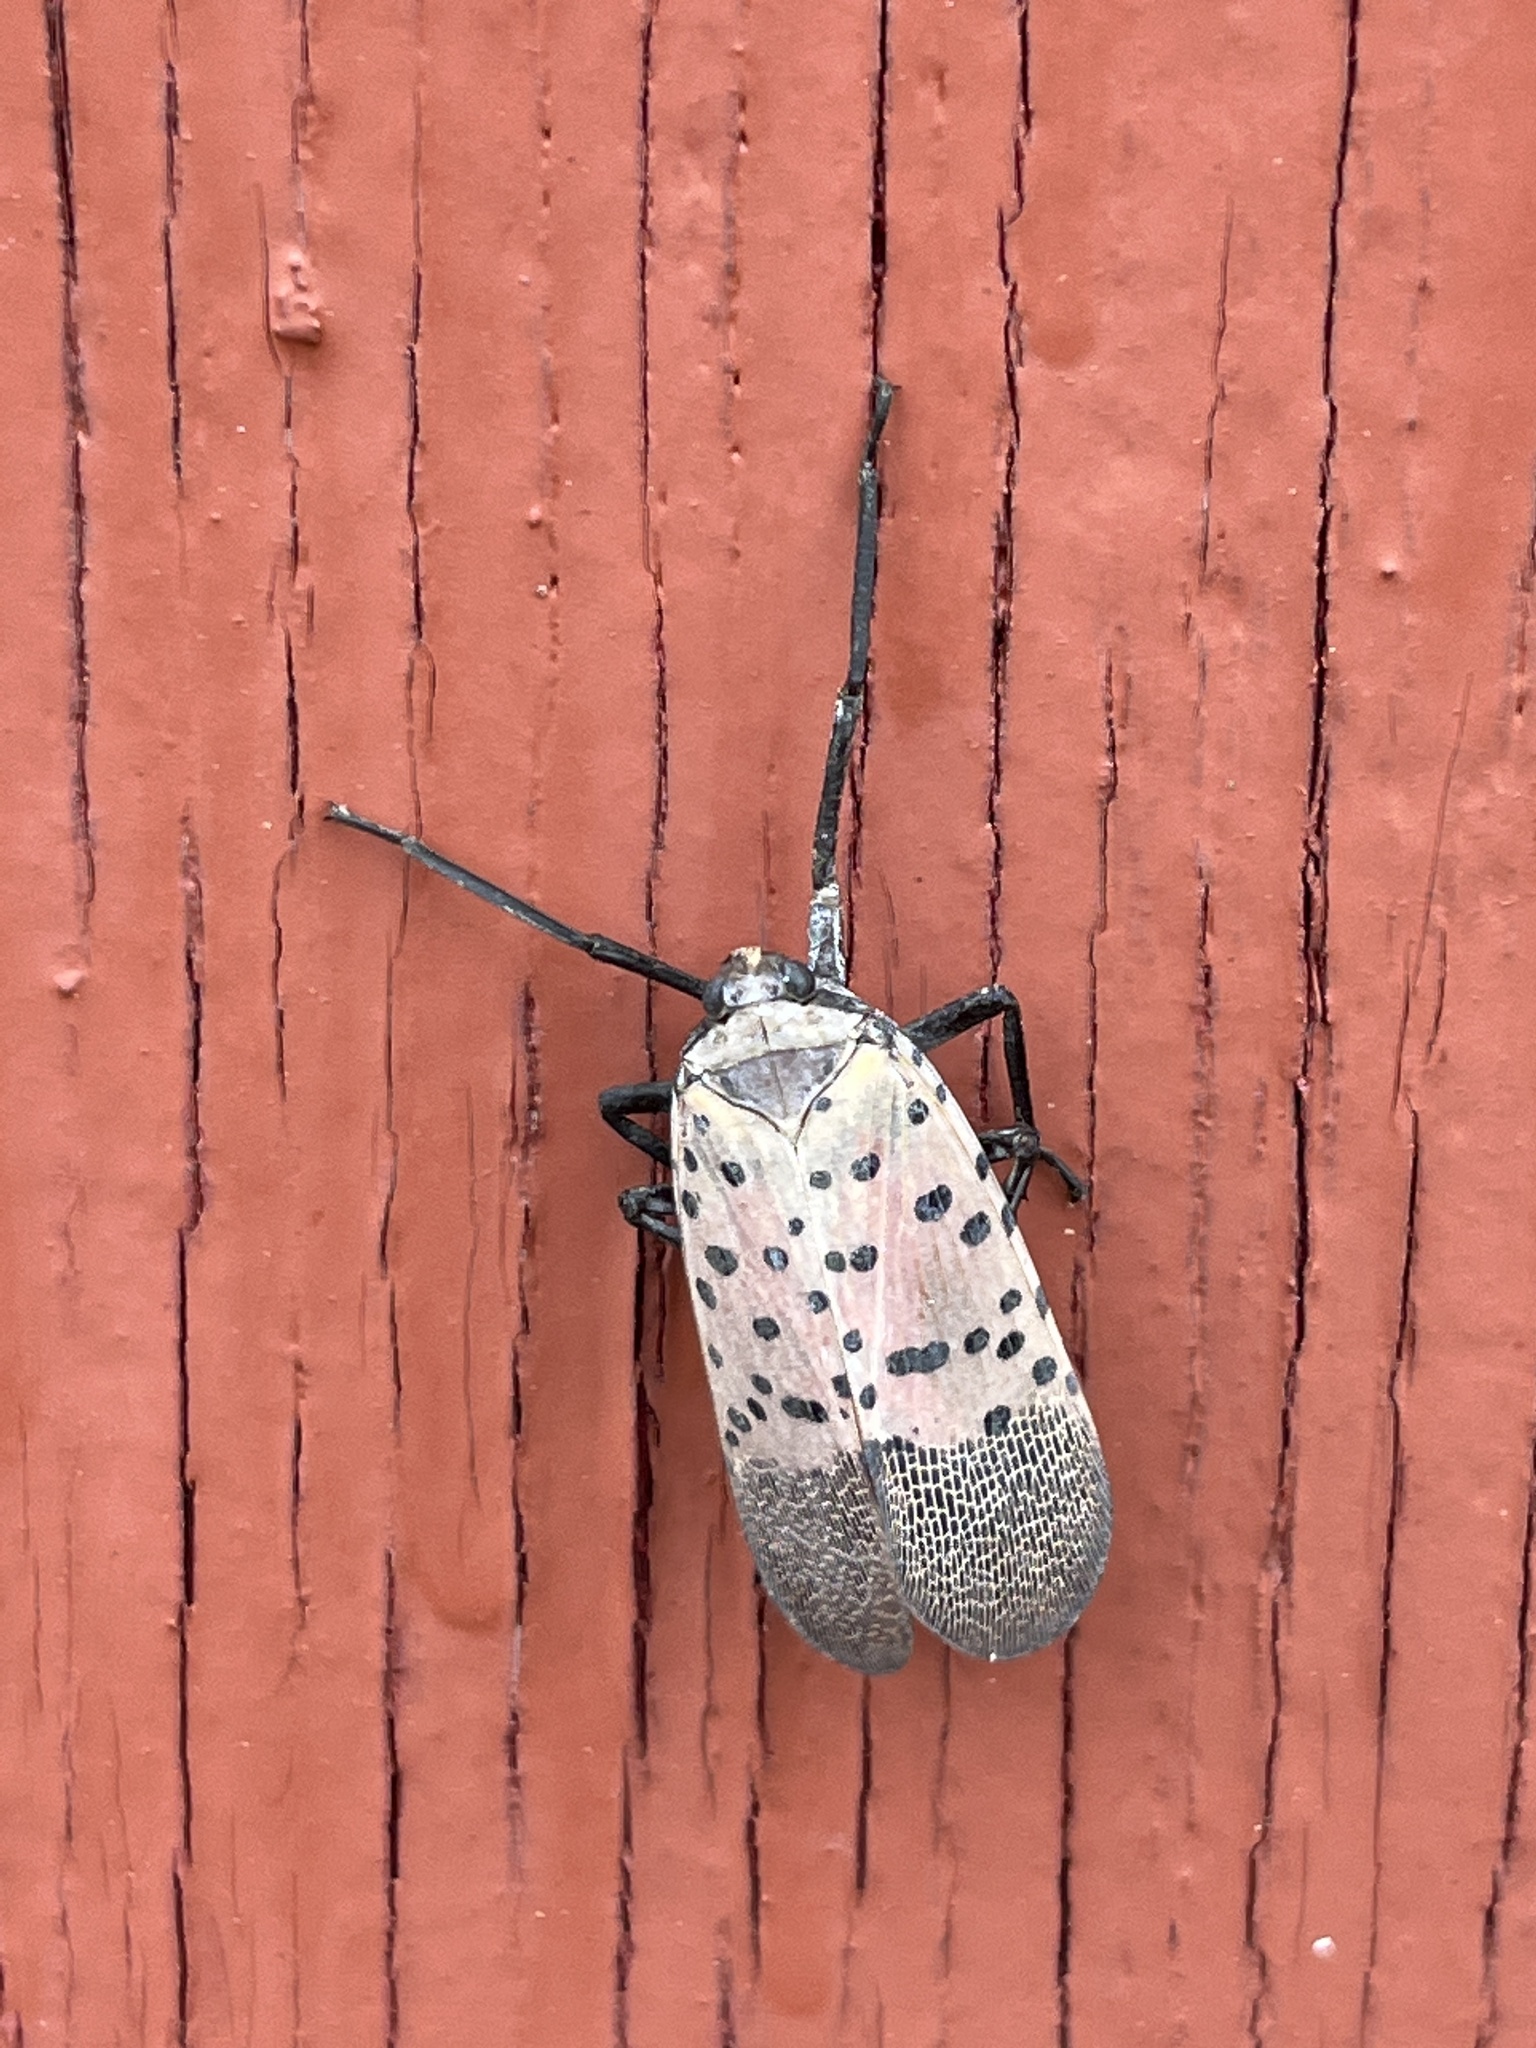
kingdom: Animalia
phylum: Arthropoda
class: Insecta
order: Hemiptera
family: Fulgoridae
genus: Lycorma
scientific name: Lycorma delicatula
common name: Spotted lanternfly
